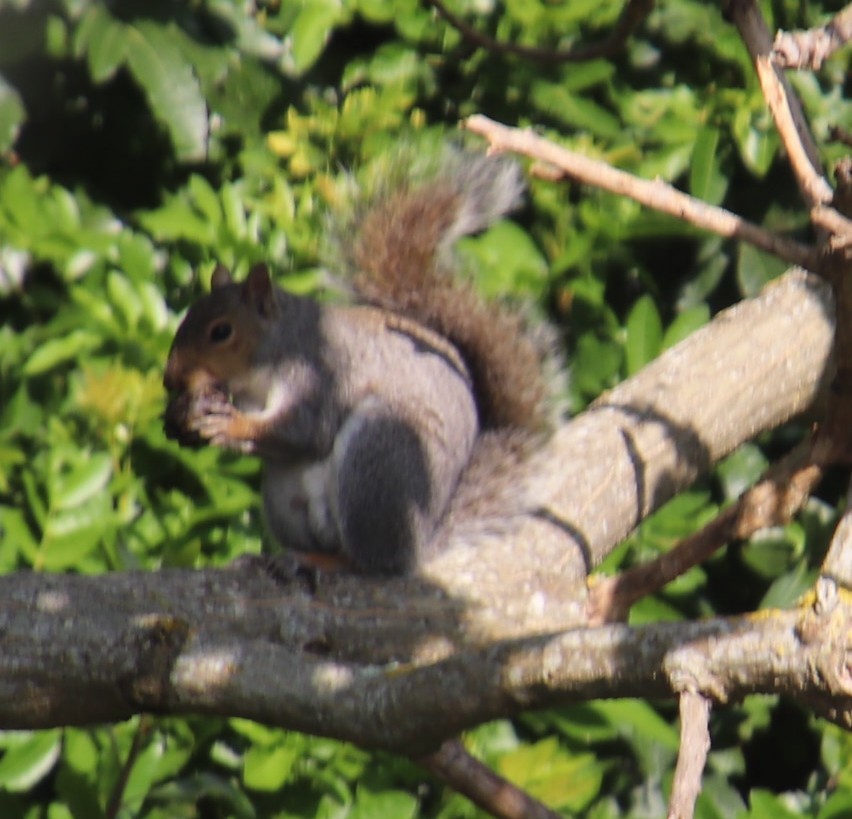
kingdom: Animalia
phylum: Chordata
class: Mammalia
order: Rodentia
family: Sciuridae
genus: Sciurus
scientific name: Sciurus carolinensis
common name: Eastern gray squirrel
